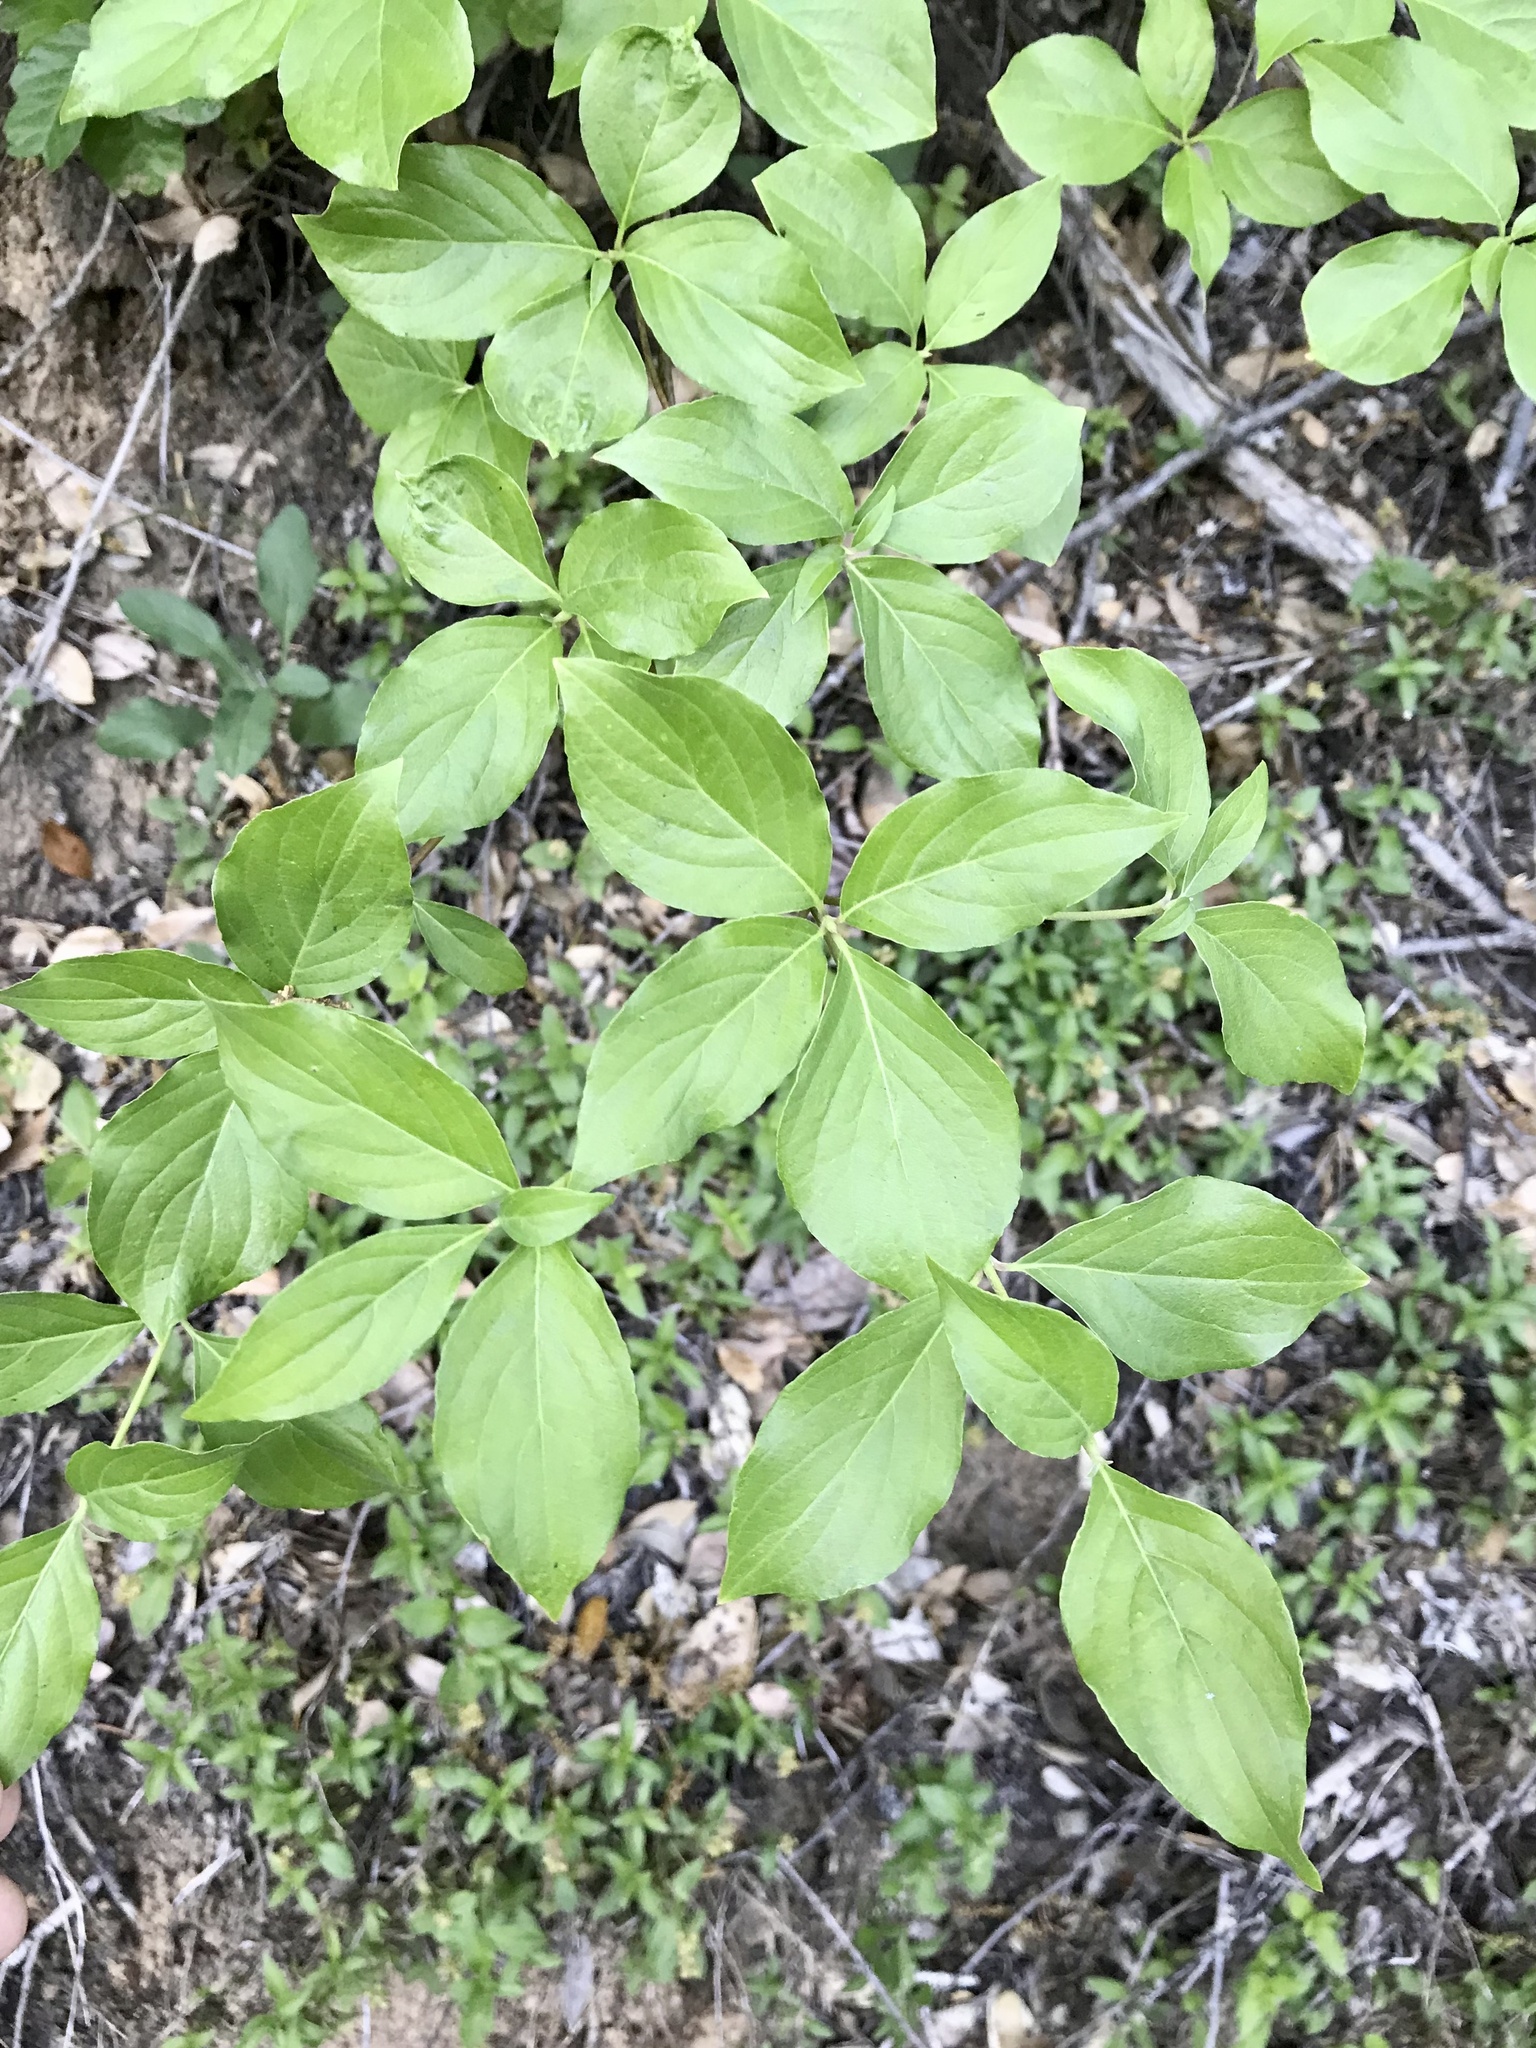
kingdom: Plantae
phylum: Tracheophyta
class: Magnoliopsida
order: Cornales
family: Cornaceae
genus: Cornus
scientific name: Cornus nuttallii
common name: Pacific dogwood
